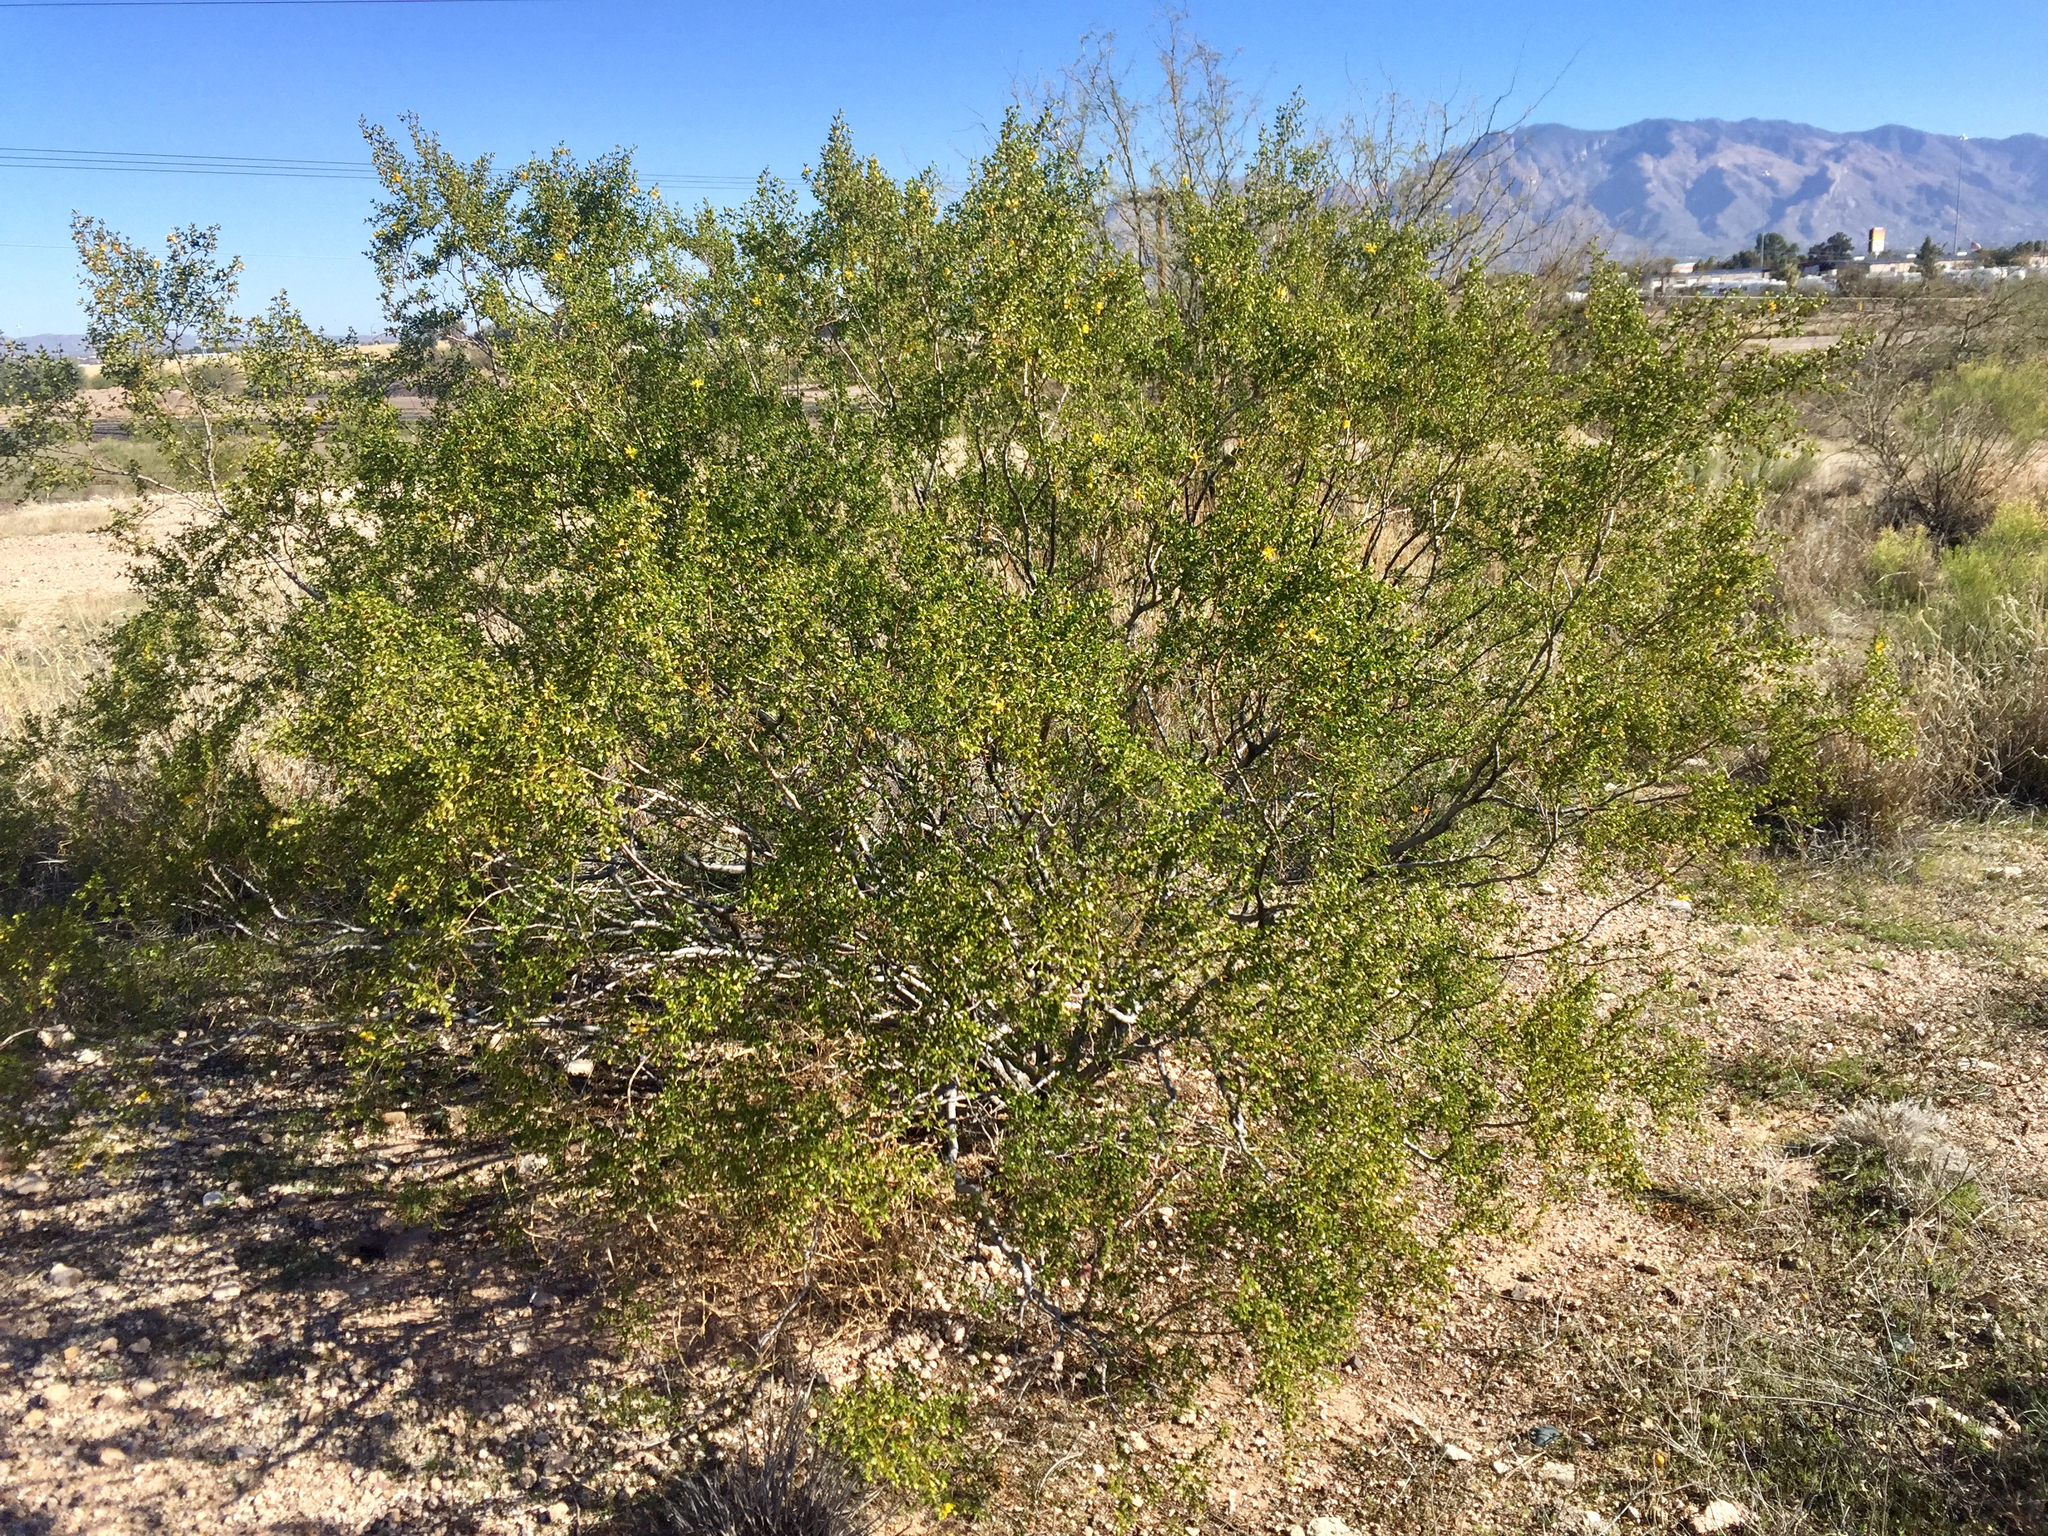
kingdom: Plantae
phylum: Tracheophyta
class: Magnoliopsida
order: Zygophyllales
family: Zygophyllaceae
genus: Larrea
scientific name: Larrea tridentata
